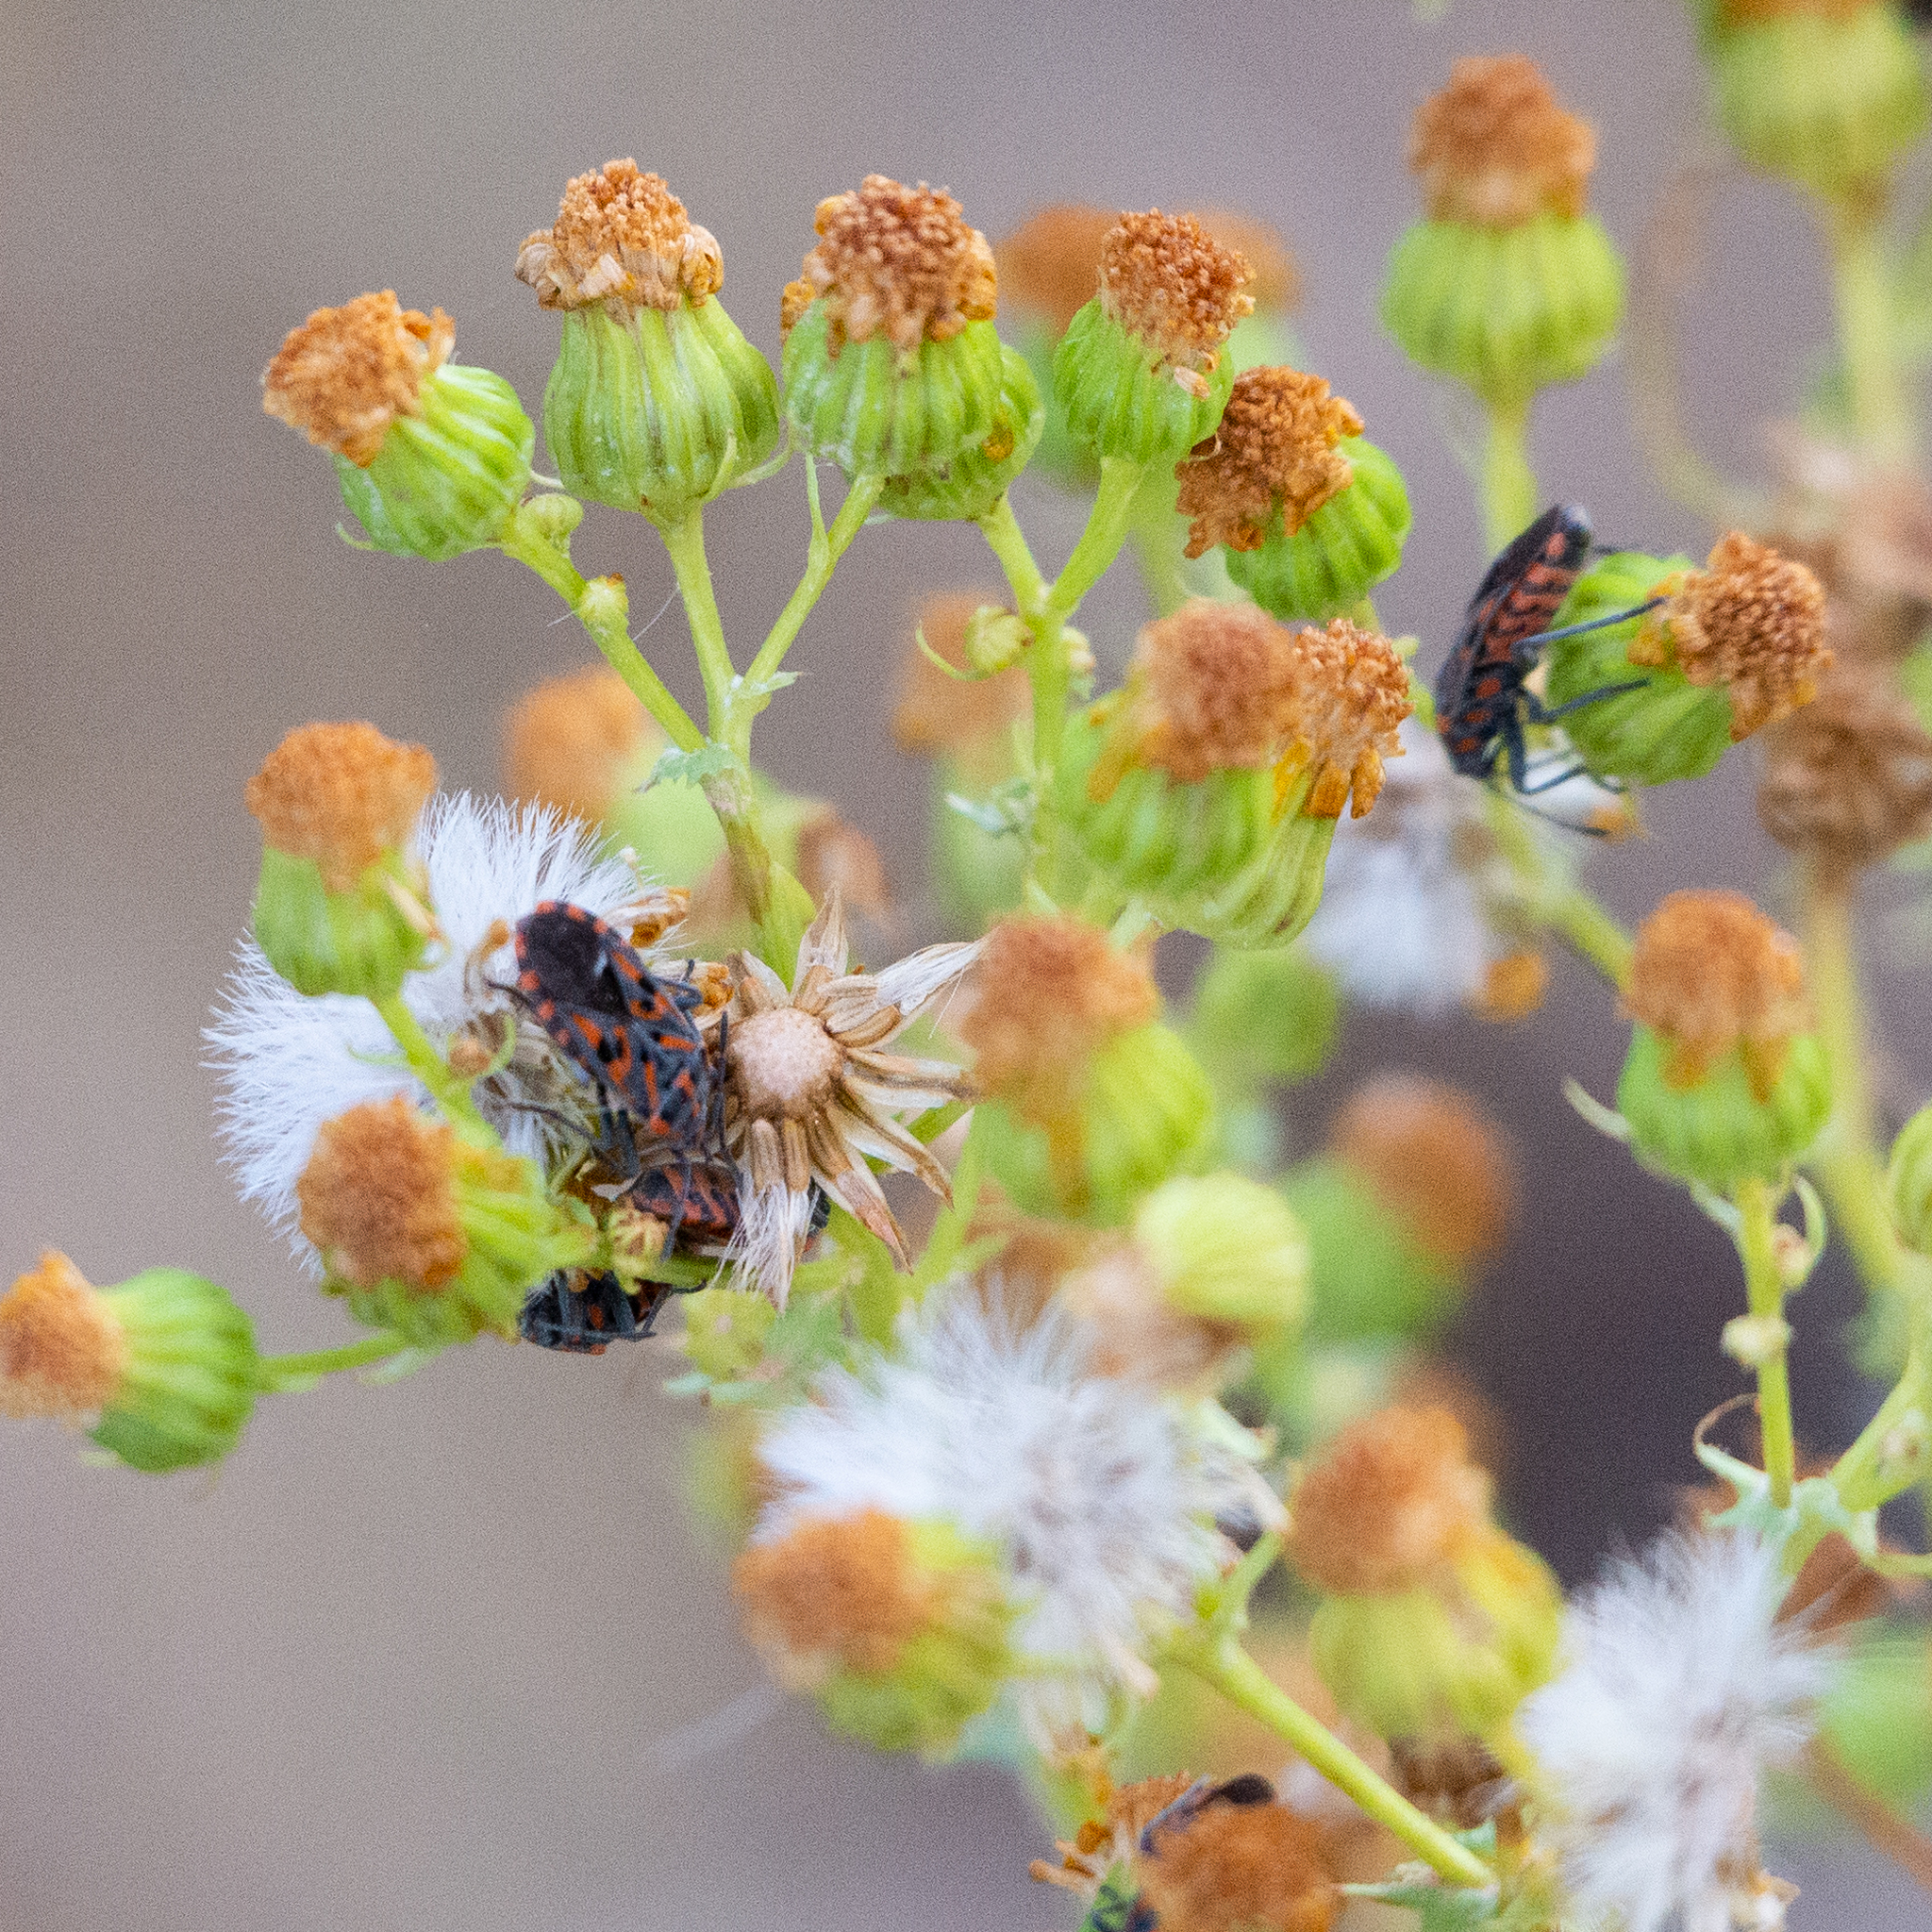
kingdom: Animalia
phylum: Arthropoda
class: Insecta
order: Hemiptera
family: Lygaeidae
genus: Spilostethus
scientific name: Spilostethus saxatilis
